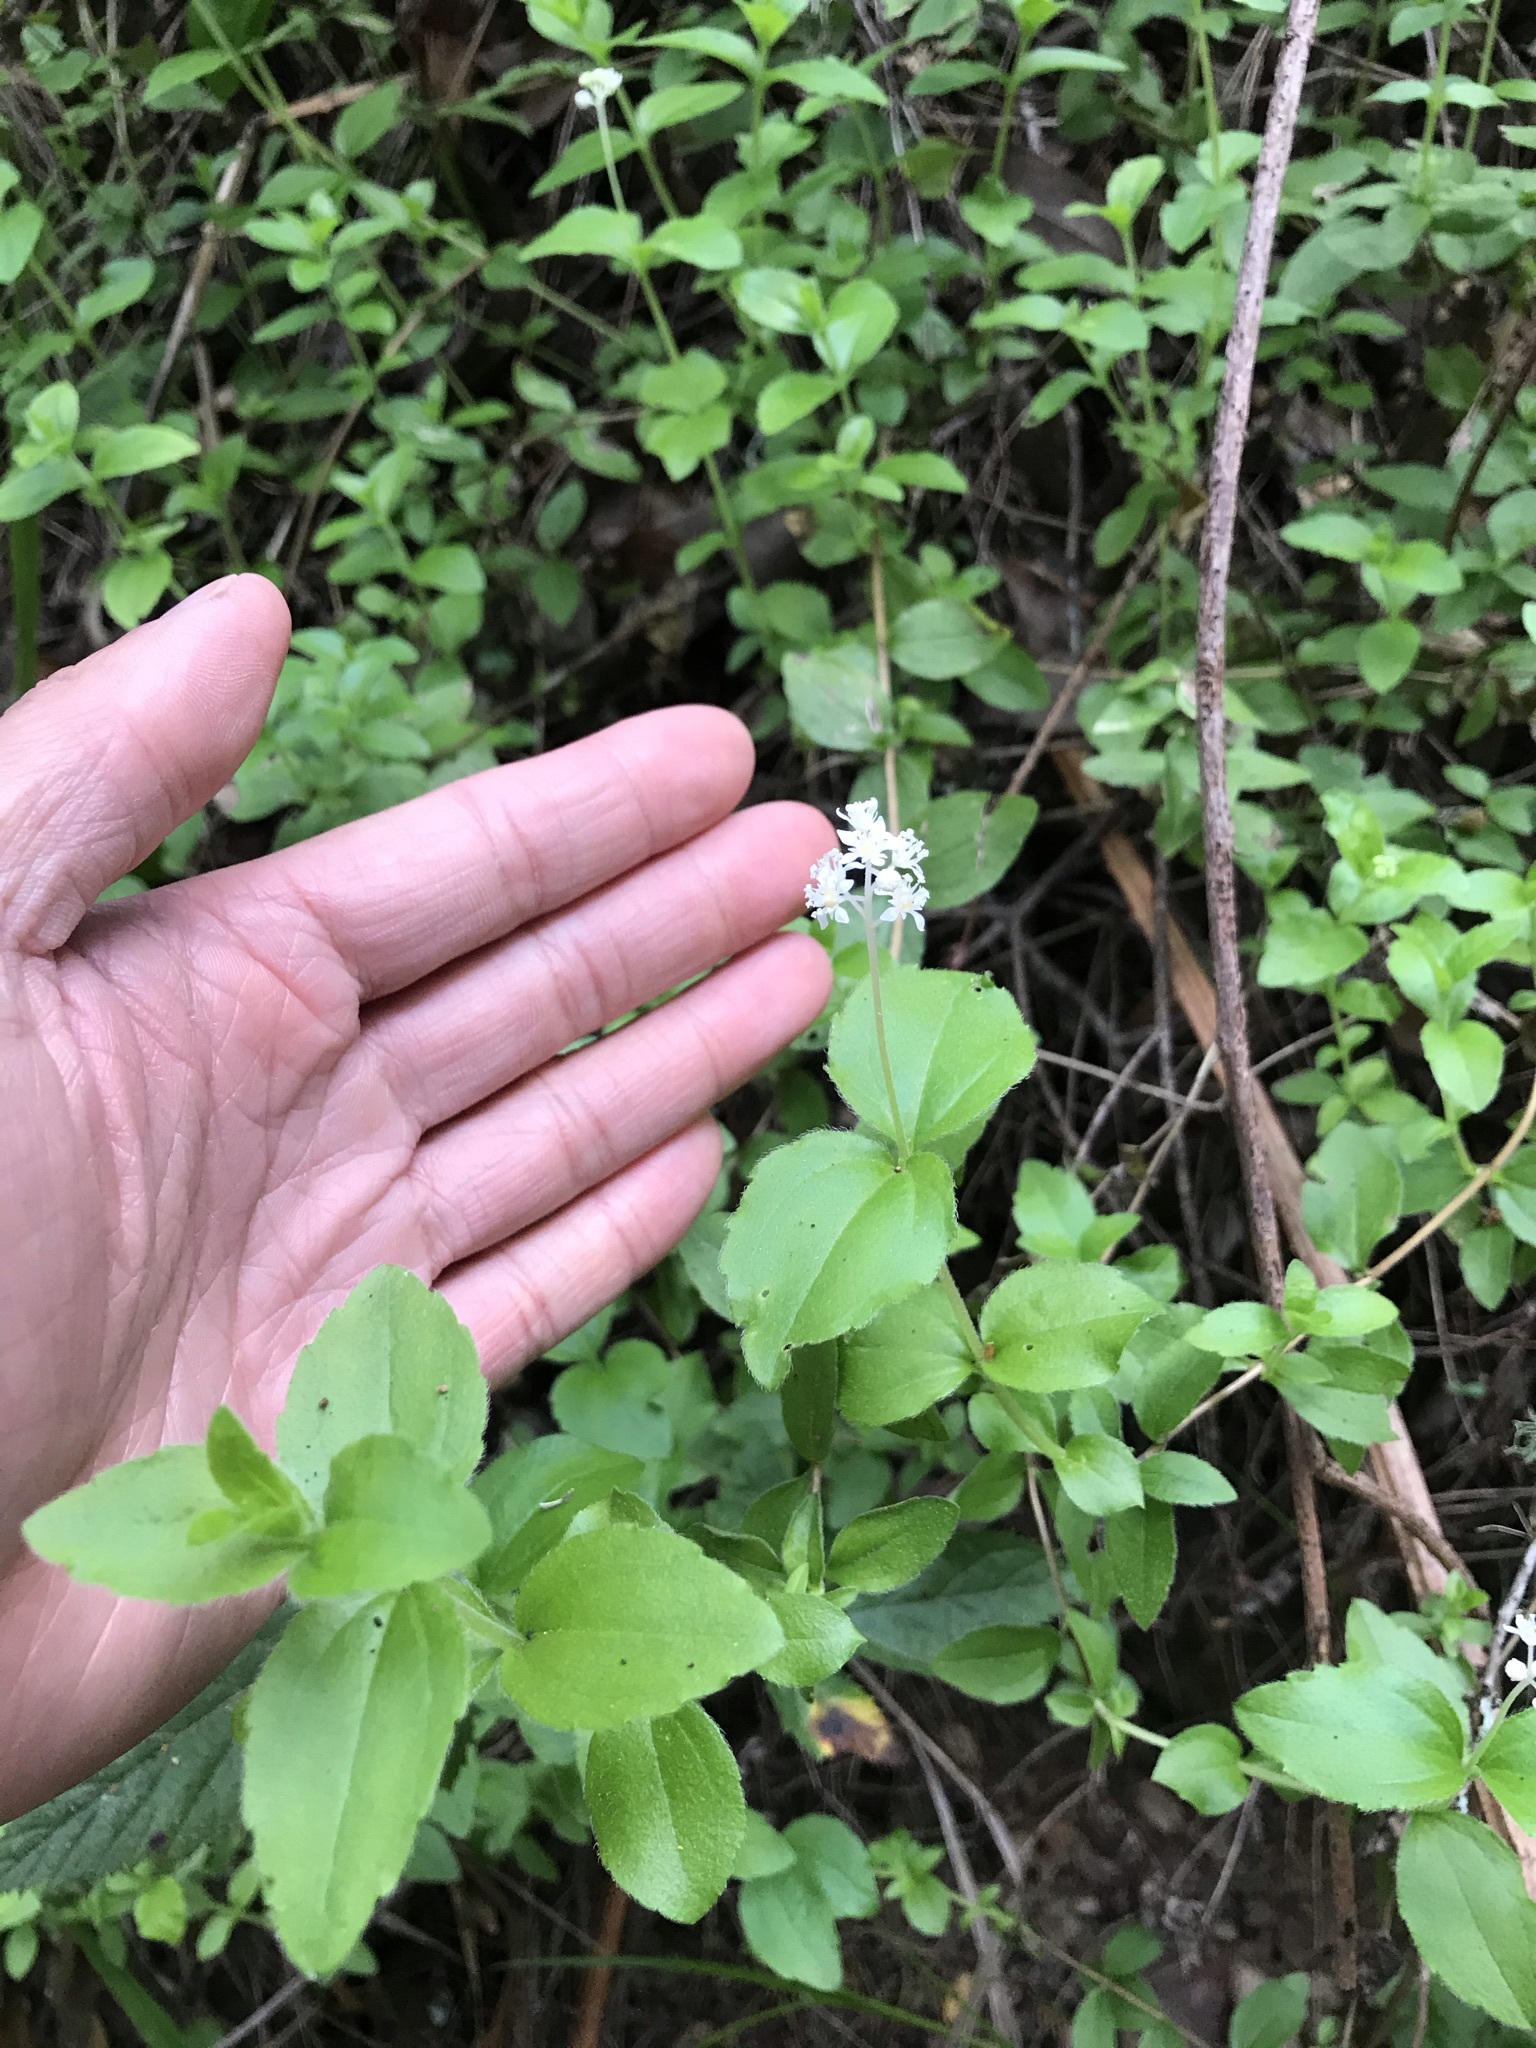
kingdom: Plantae
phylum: Tracheophyta
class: Magnoliopsida
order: Cornales
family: Hydrangeaceae
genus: Whipplea
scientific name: Whipplea modesta
